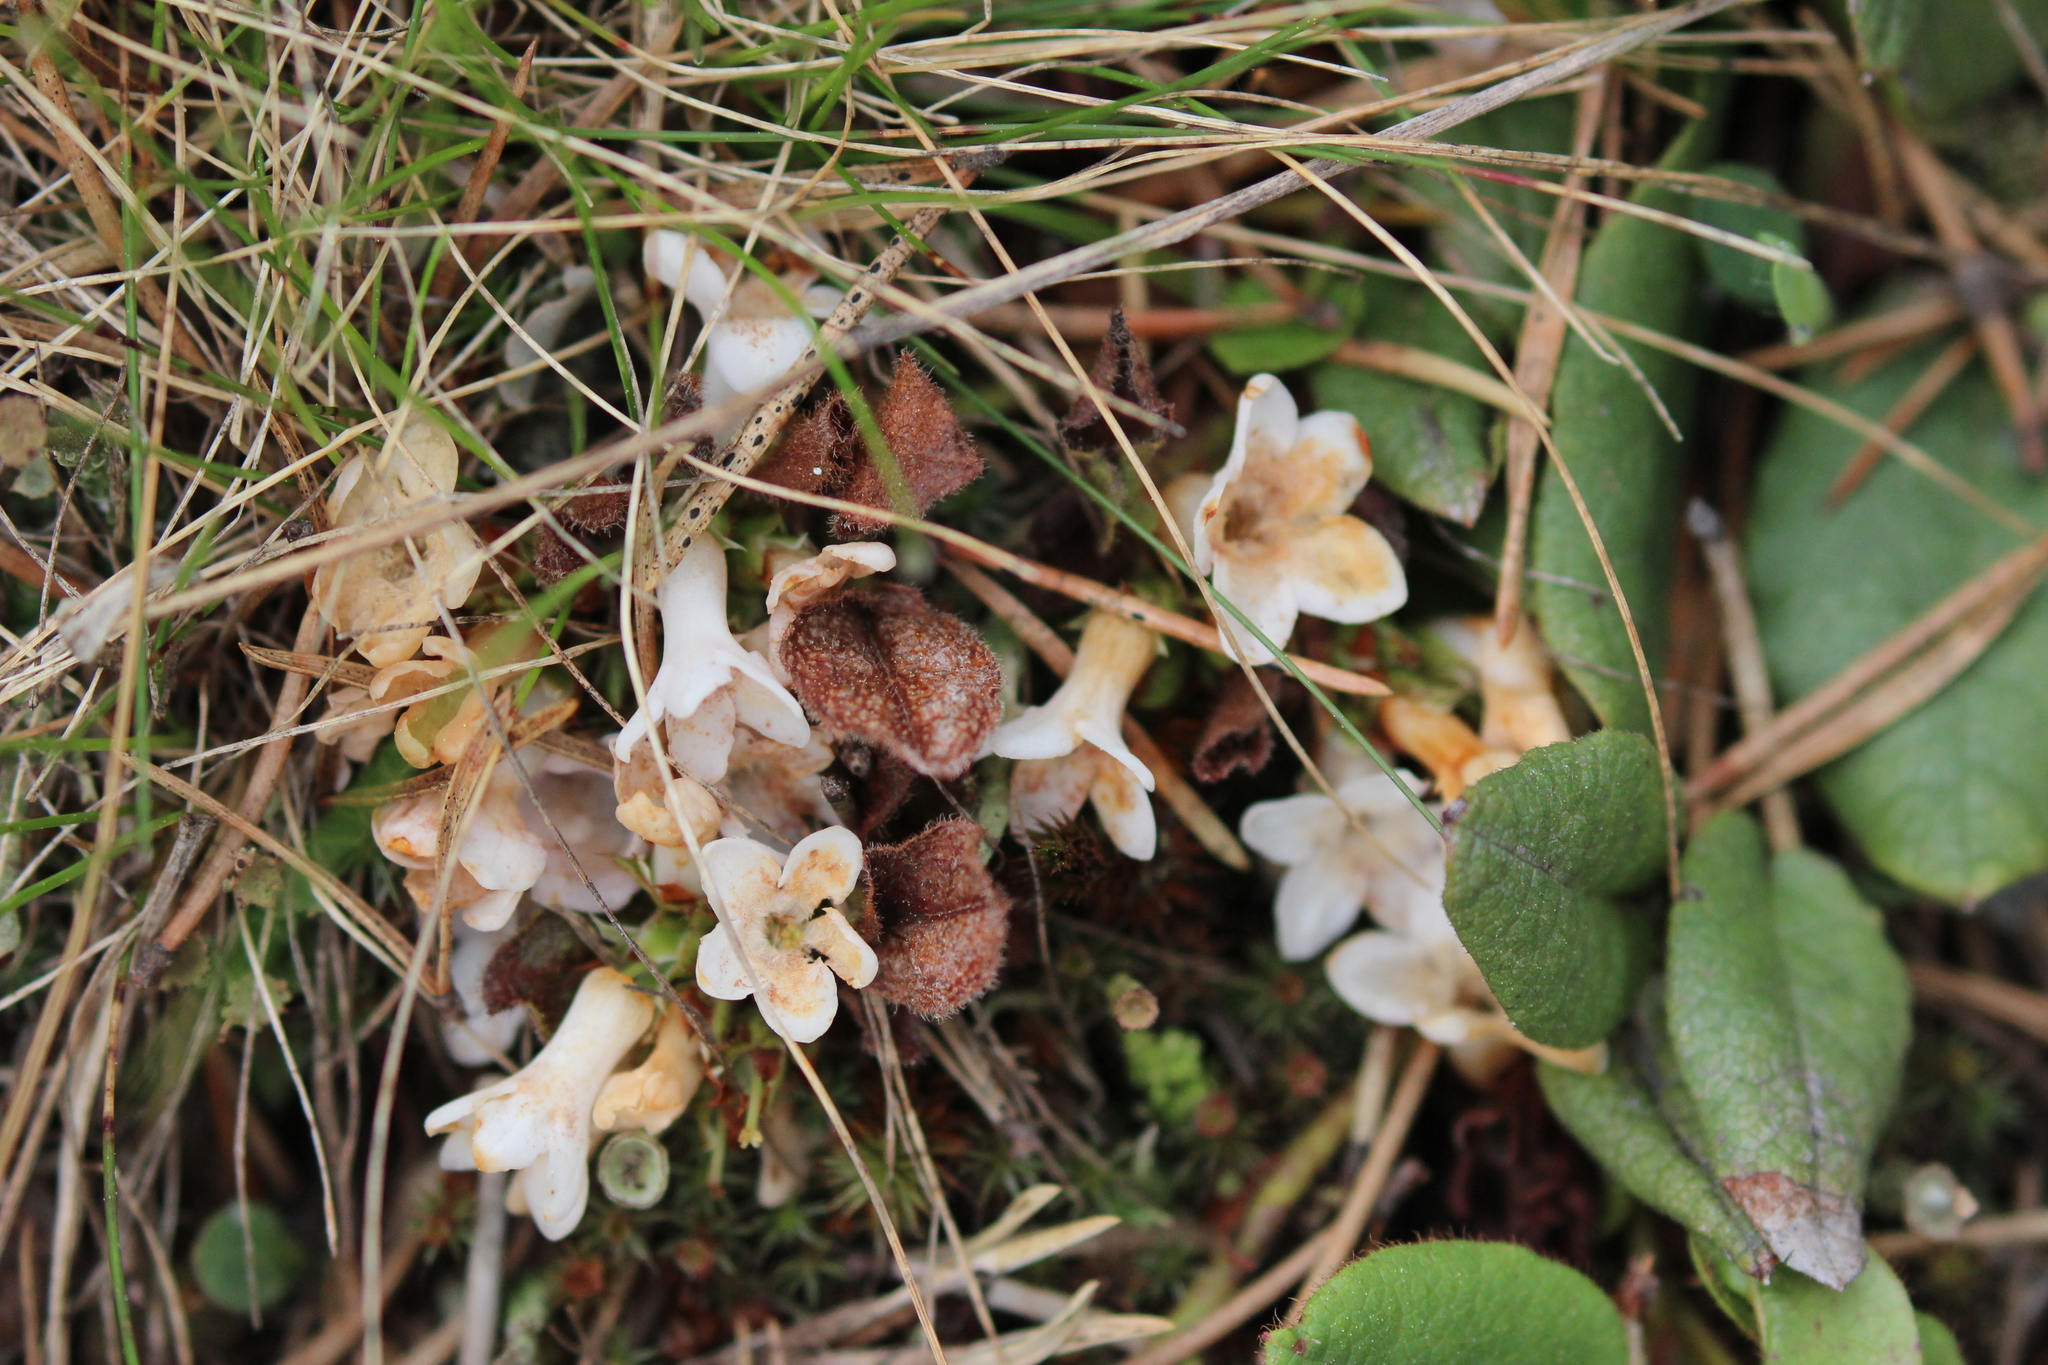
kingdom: Plantae
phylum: Tracheophyta
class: Magnoliopsida
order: Ericales
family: Ericaceae
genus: Epigaea
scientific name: Epigaea repens
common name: Gravelroot
